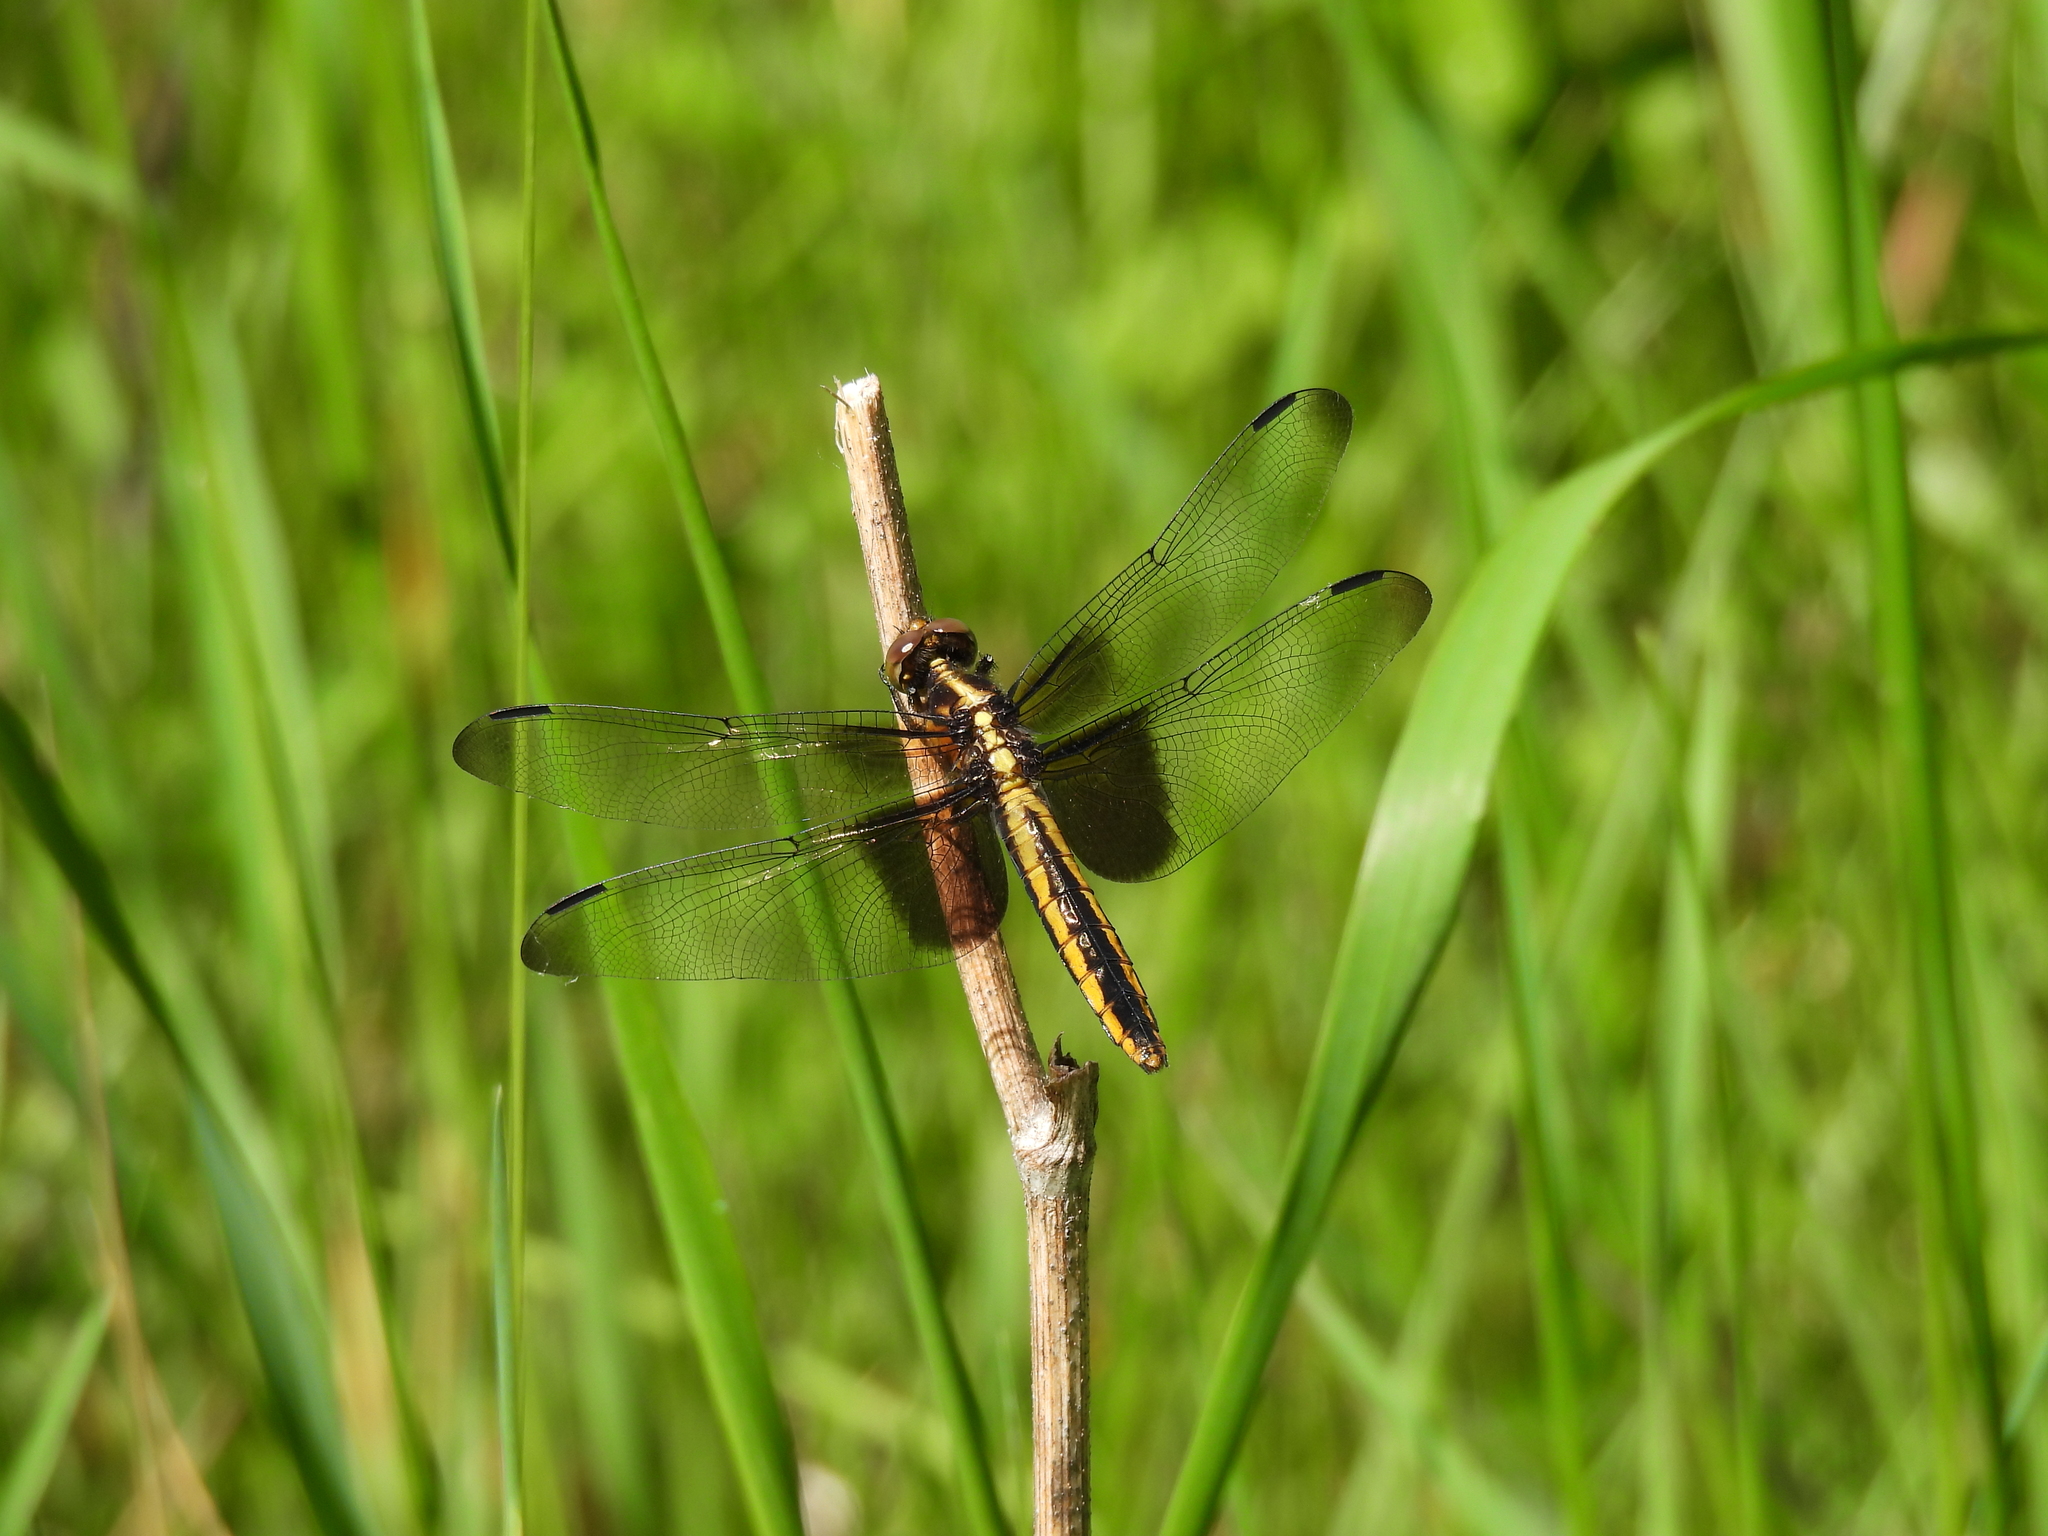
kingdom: Animalia
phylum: Arthropoda
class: Insecta
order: Odonata
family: Libellulidae
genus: Libellula
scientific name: Libellula luctuosa
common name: Widow skimmer
